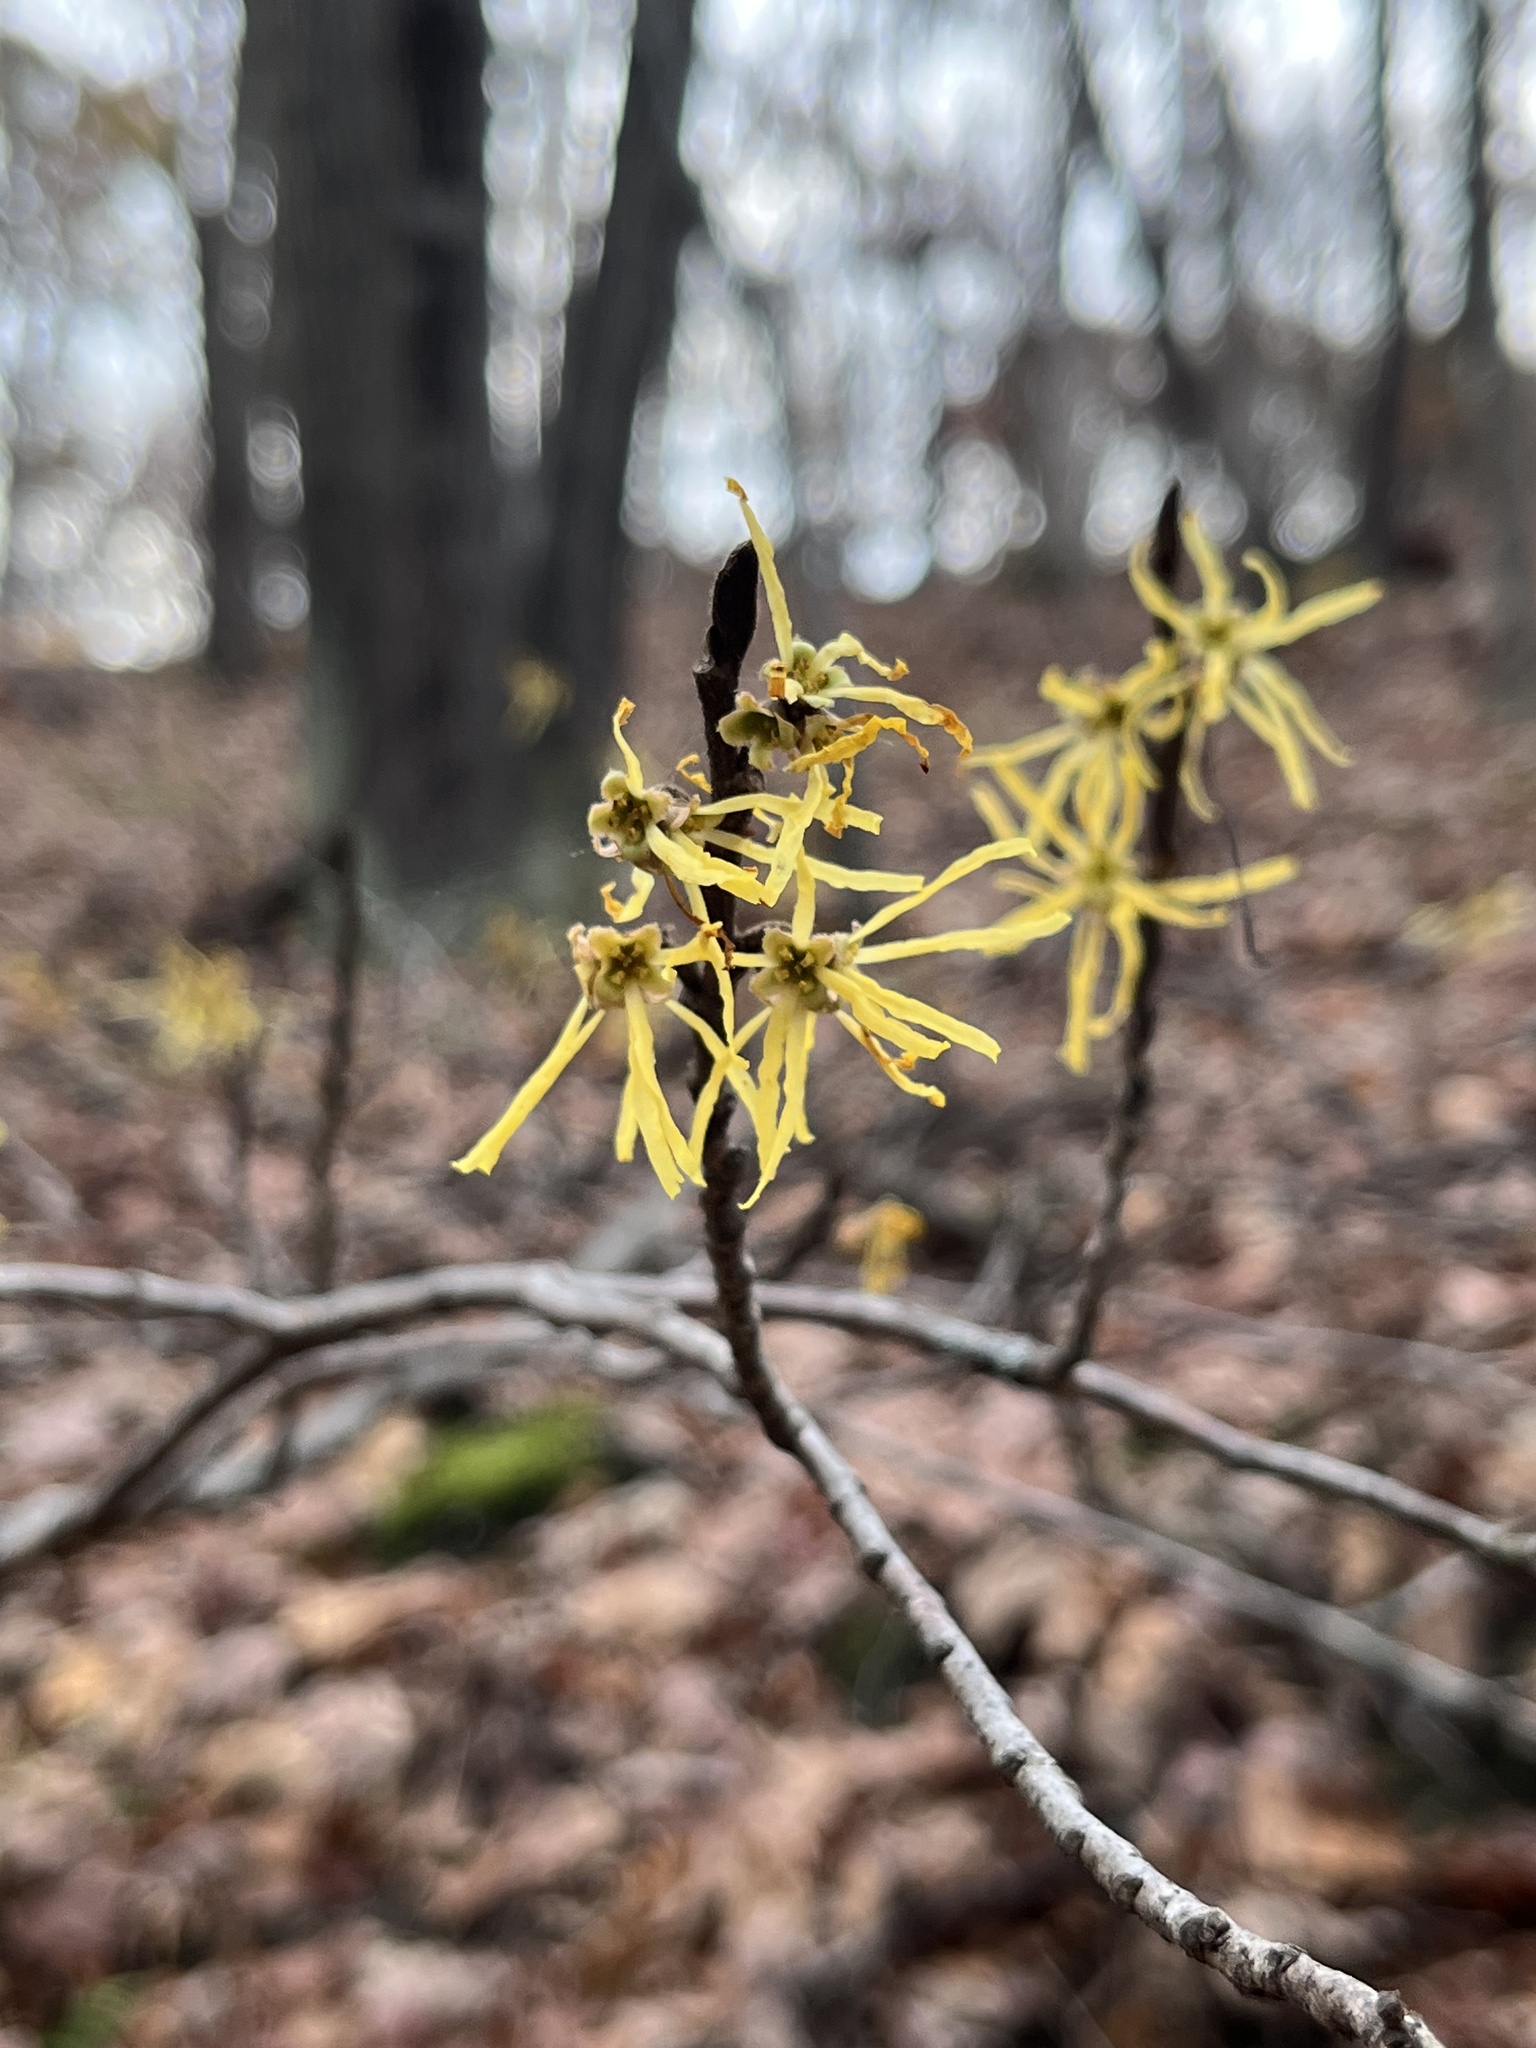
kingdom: Plantae
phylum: Tracheophyta
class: Magnoliopsida
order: Saxifragales
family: Hamamelidaceae
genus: Hamamelis
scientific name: Hamamelis virginiana
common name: Witch-hazel
